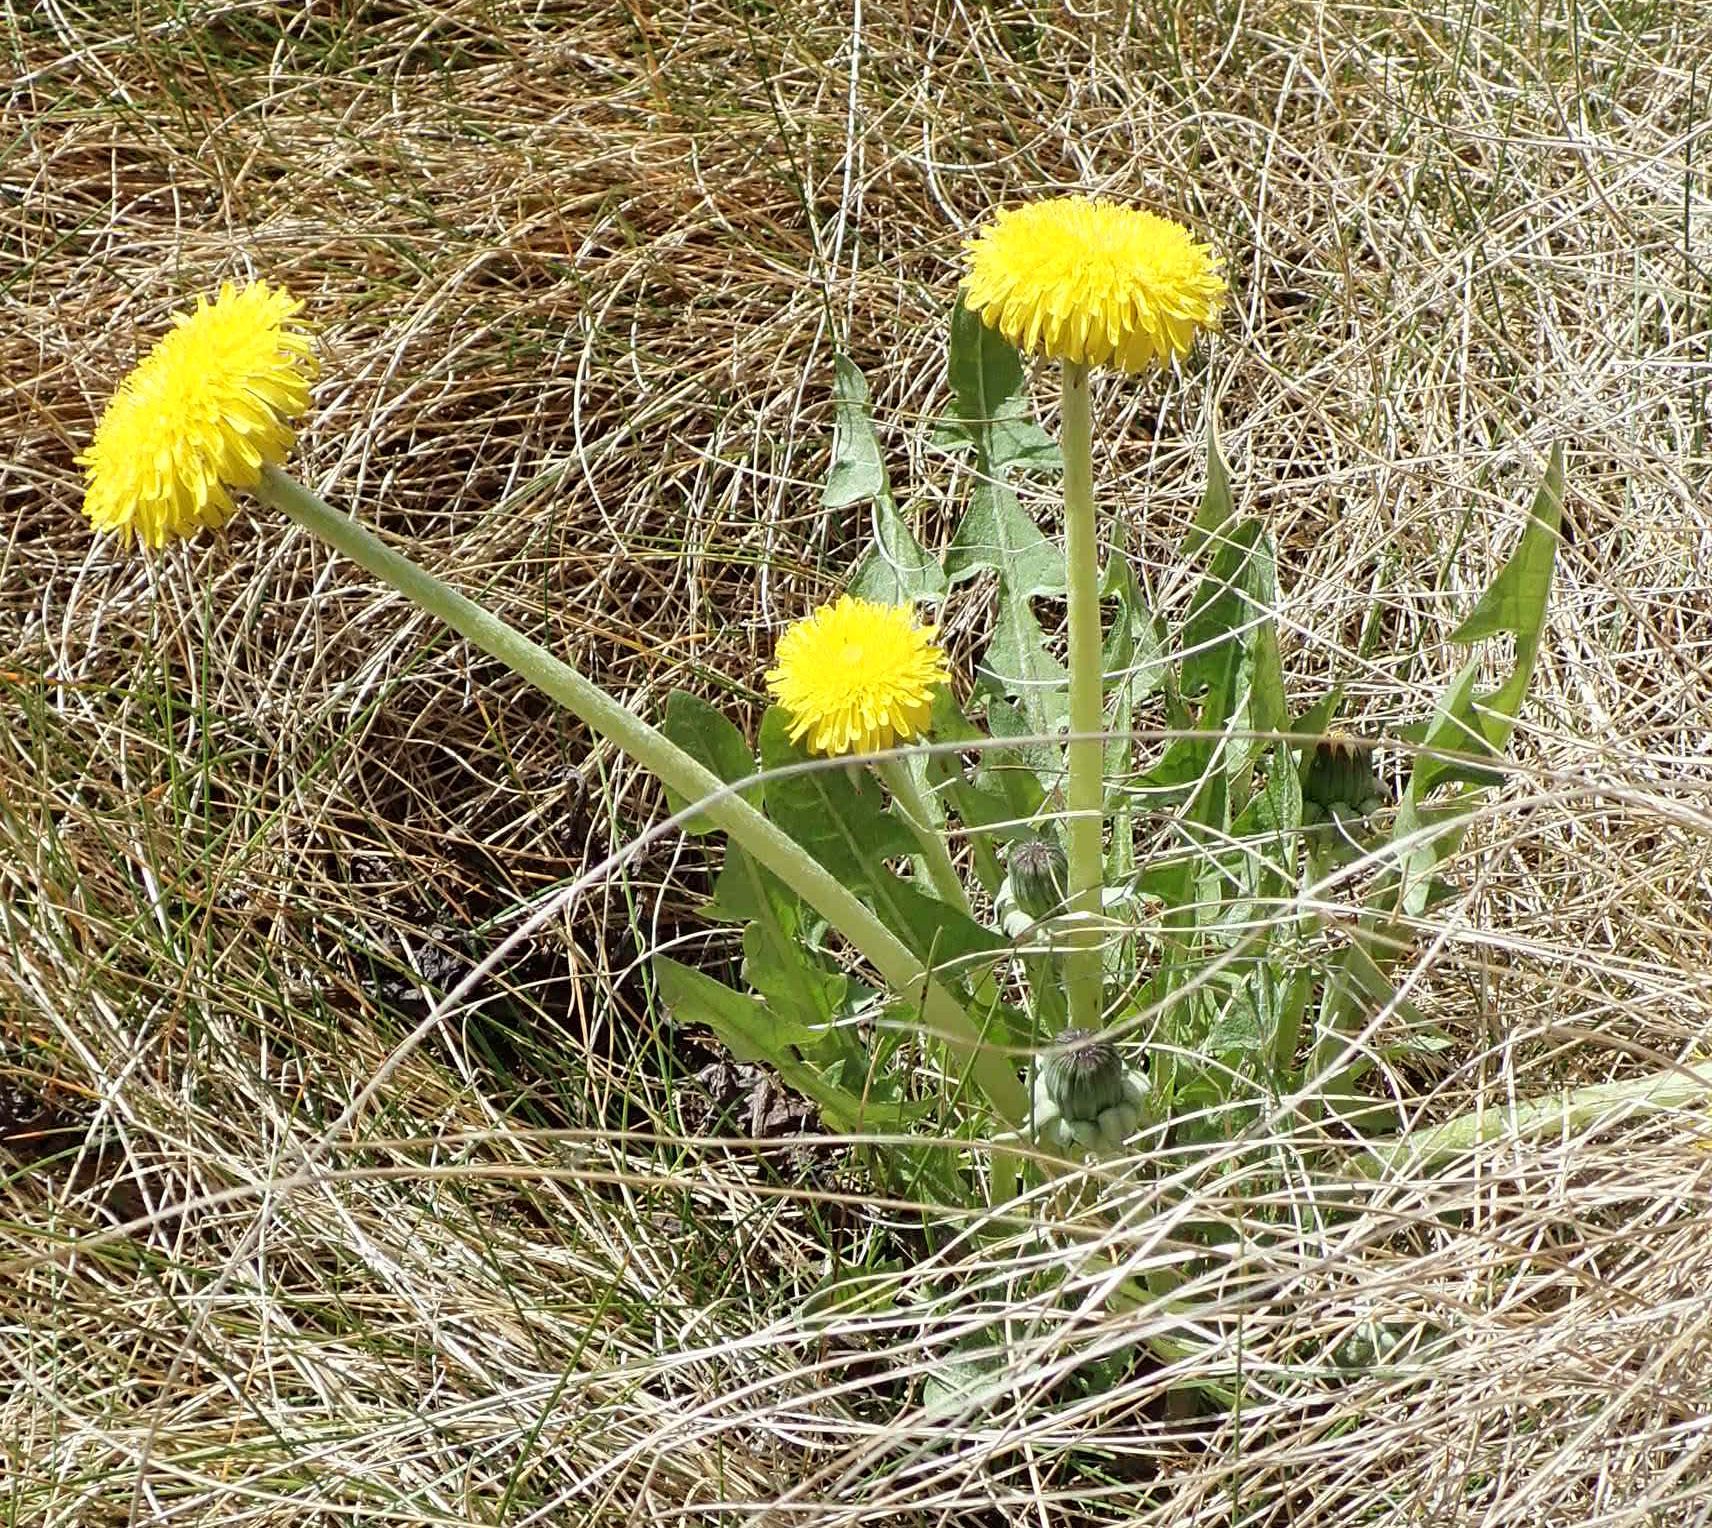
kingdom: Plantae
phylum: Tracheophyta
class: Magnoliopsida
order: Asterales
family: Asteraceae
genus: Taraxacum
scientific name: Taraxacum officinale
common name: Common dandelion
